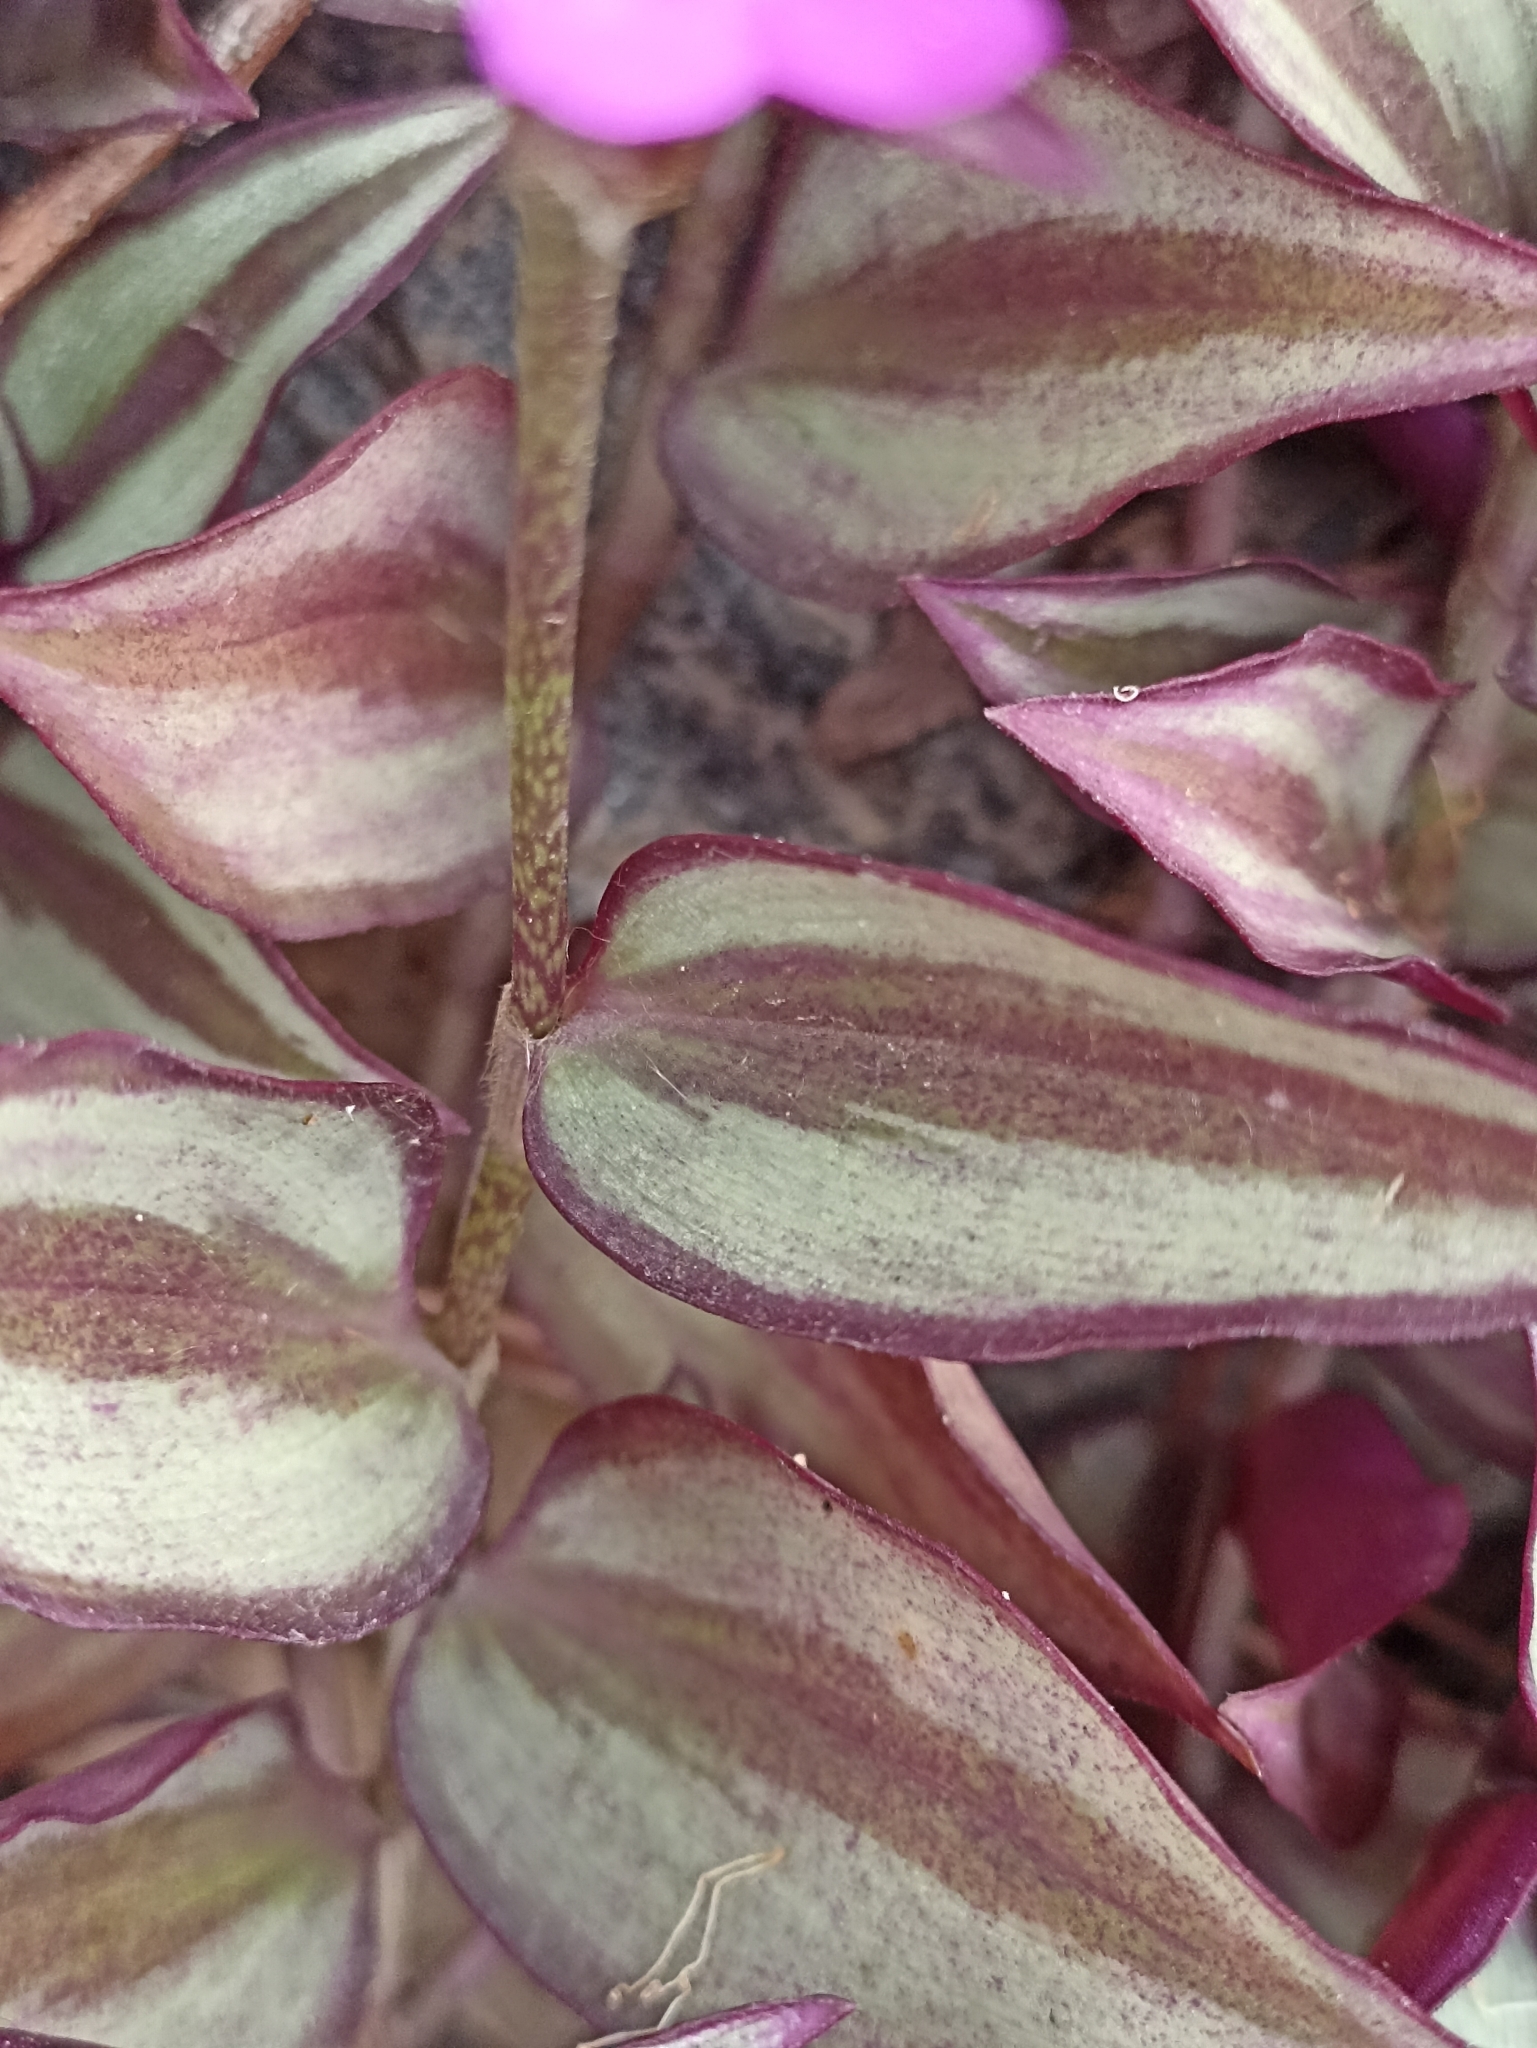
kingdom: Plantae
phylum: Tracheophyta
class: Liliopsida
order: Commelinales
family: Commelinaceae
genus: Tradescantia
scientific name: Tradescantia zebrina
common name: Inchplant
